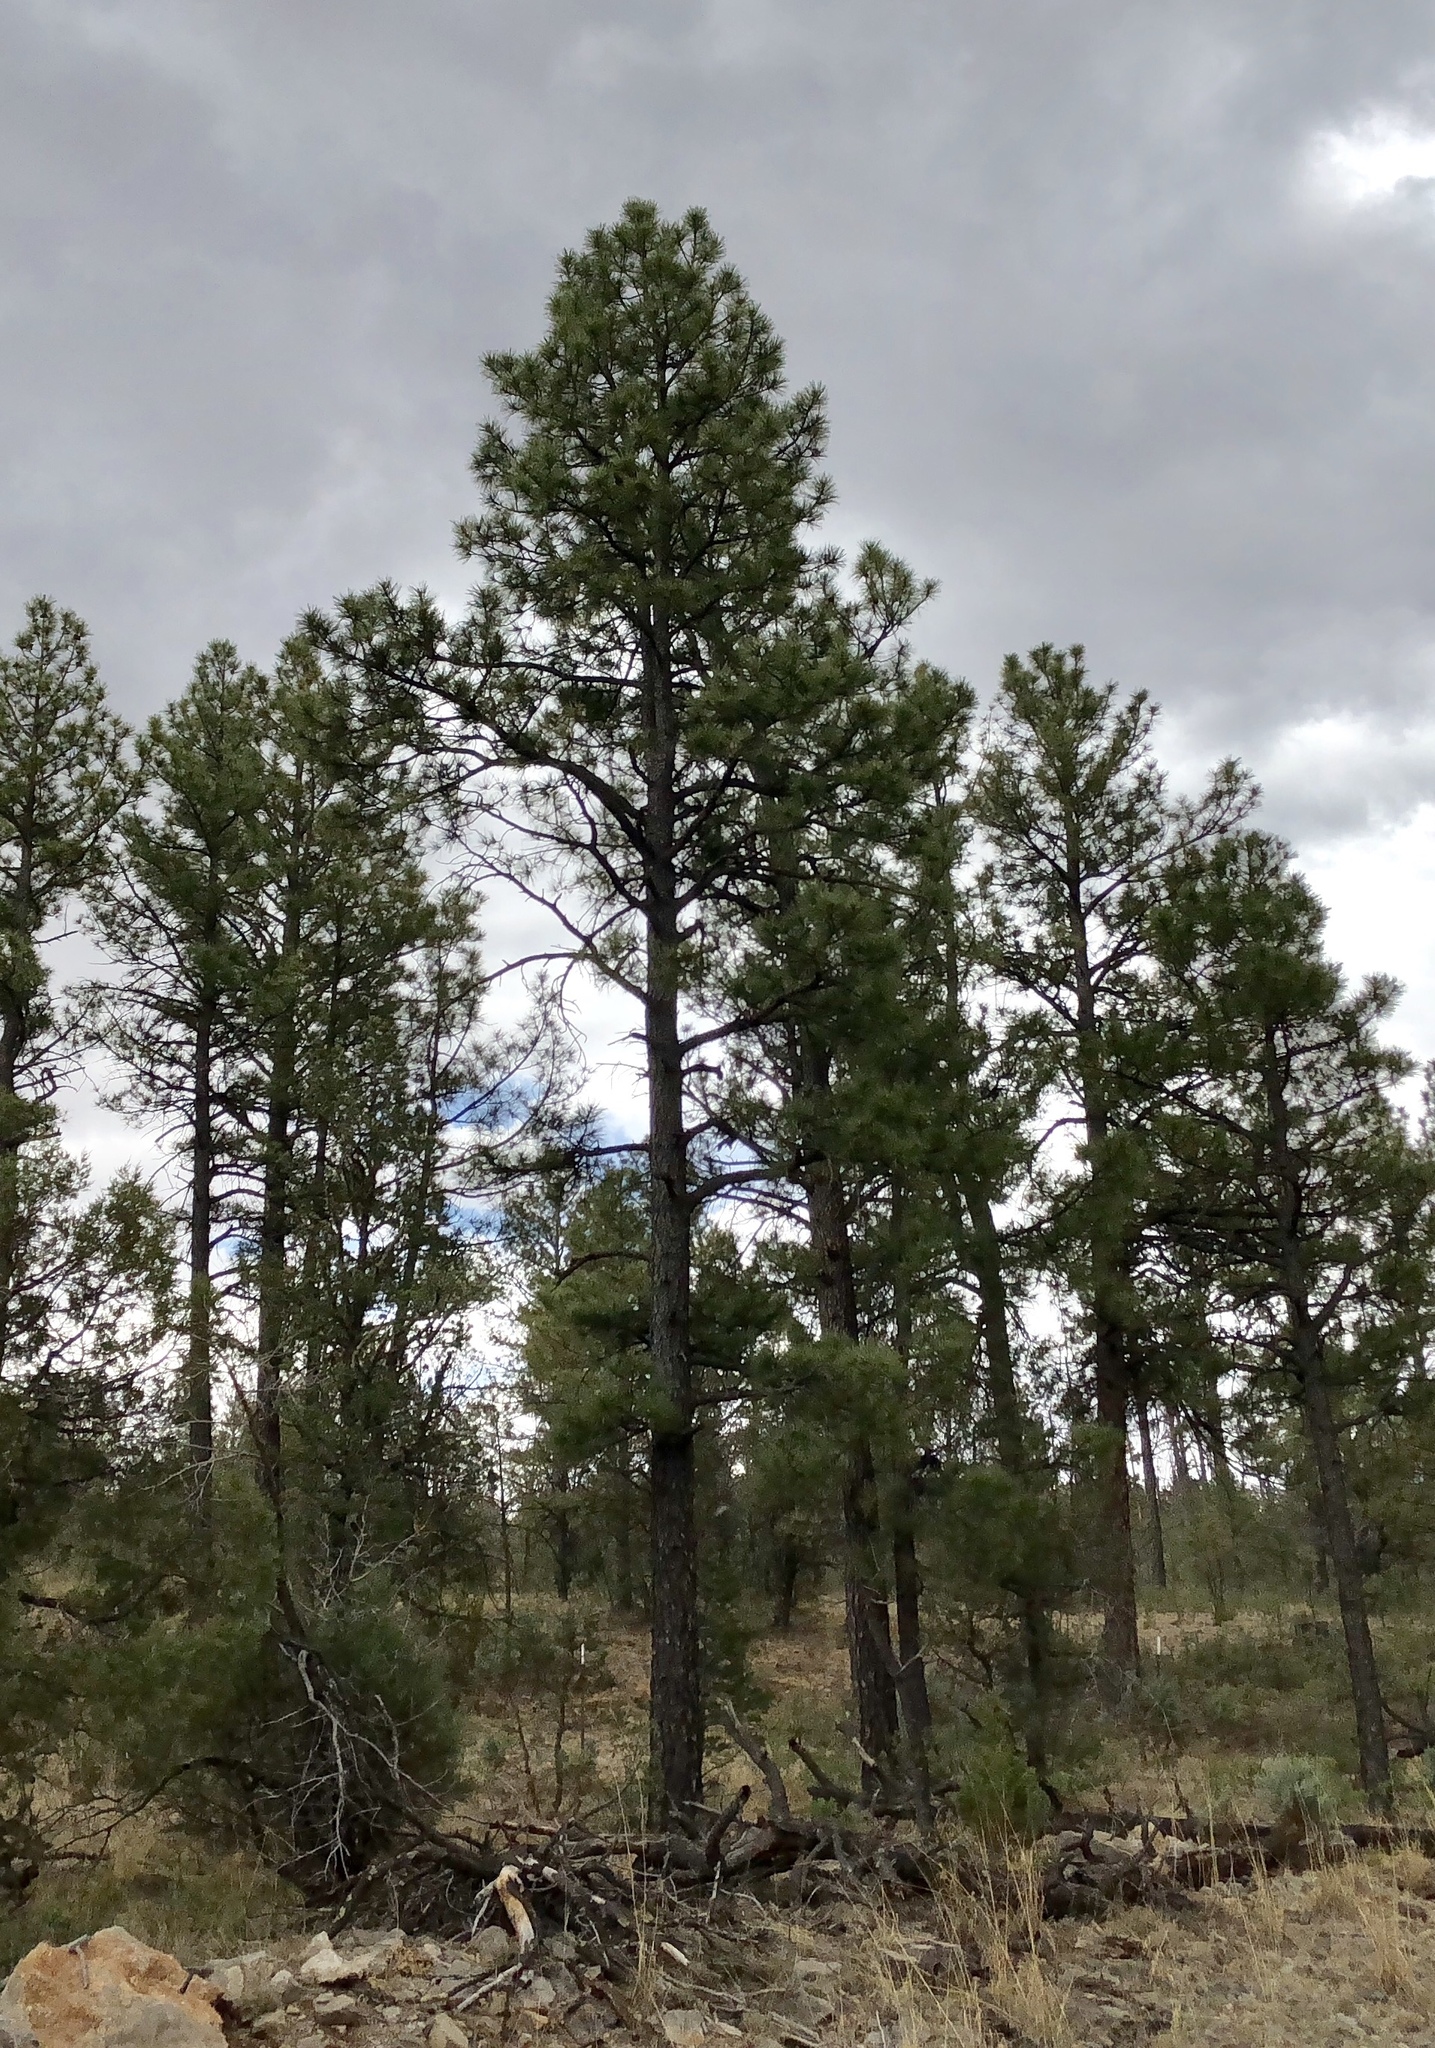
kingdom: Plantae
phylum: Tracheophyta
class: Pinopsida
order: Pinales
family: Pinaceae
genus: Pinus
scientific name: Pinus ponderosa
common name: Western yellow-pine
